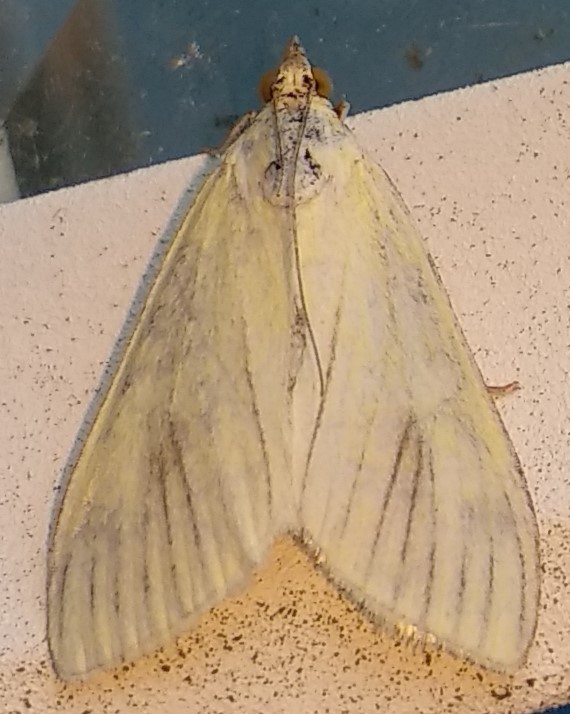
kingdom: Animalia
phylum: Arthropoda
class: Insecta
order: Lepidoptera
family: Crambidae
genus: Sitochroa
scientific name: Sitochroa palealis
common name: Greenish-yellow sitochroa moth
